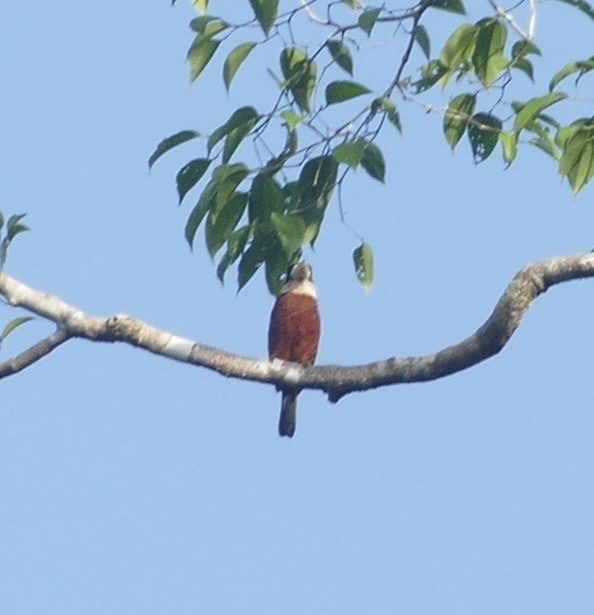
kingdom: Animalia
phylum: Chordata
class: Aves
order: Coraciiformes
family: Alcedinidae
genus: Dacelo
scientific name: Dacelo gaudichaud
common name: Rufous-bellied kookaburra
